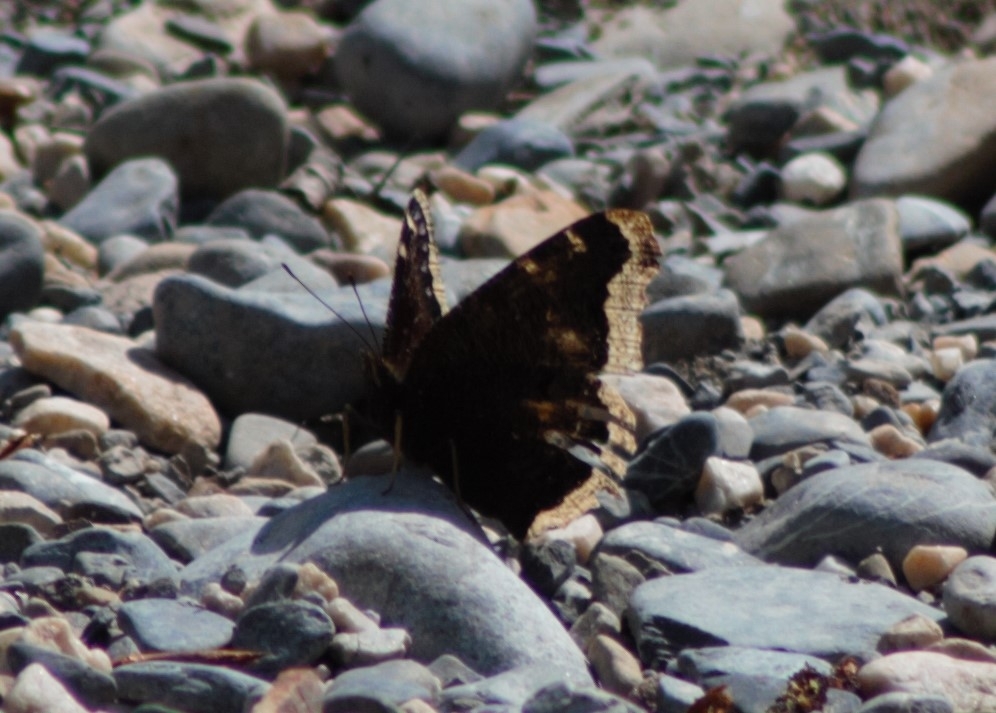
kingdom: Animalia
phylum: Arthropoda
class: Insecta
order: Lepidoptera
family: Nymphalidae
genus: Nymphalis
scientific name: Nymphalis antiopa
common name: Camberwell beauty
